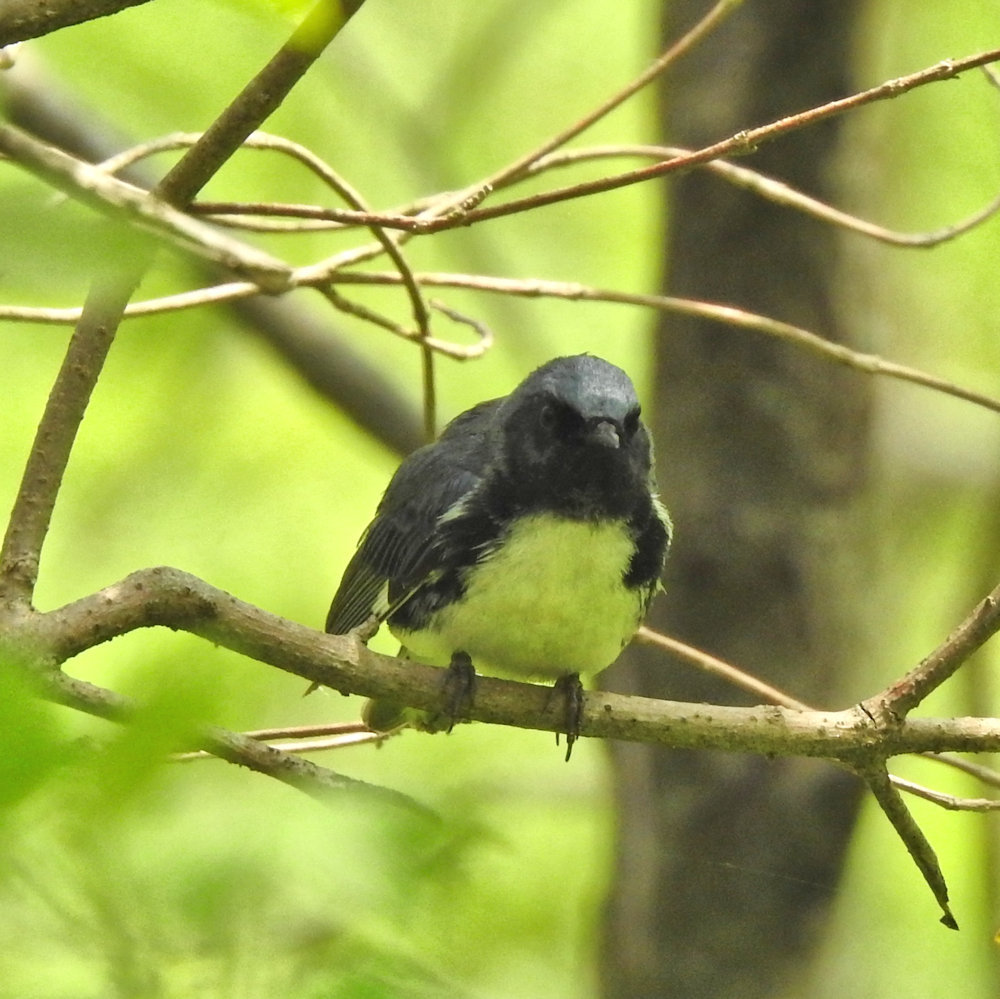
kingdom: Animalia
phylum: Chordata
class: Aves
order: Passeriformes
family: Parulidae
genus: Setophaga
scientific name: Setophaga caerulescens
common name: Black-throated blue warbler
